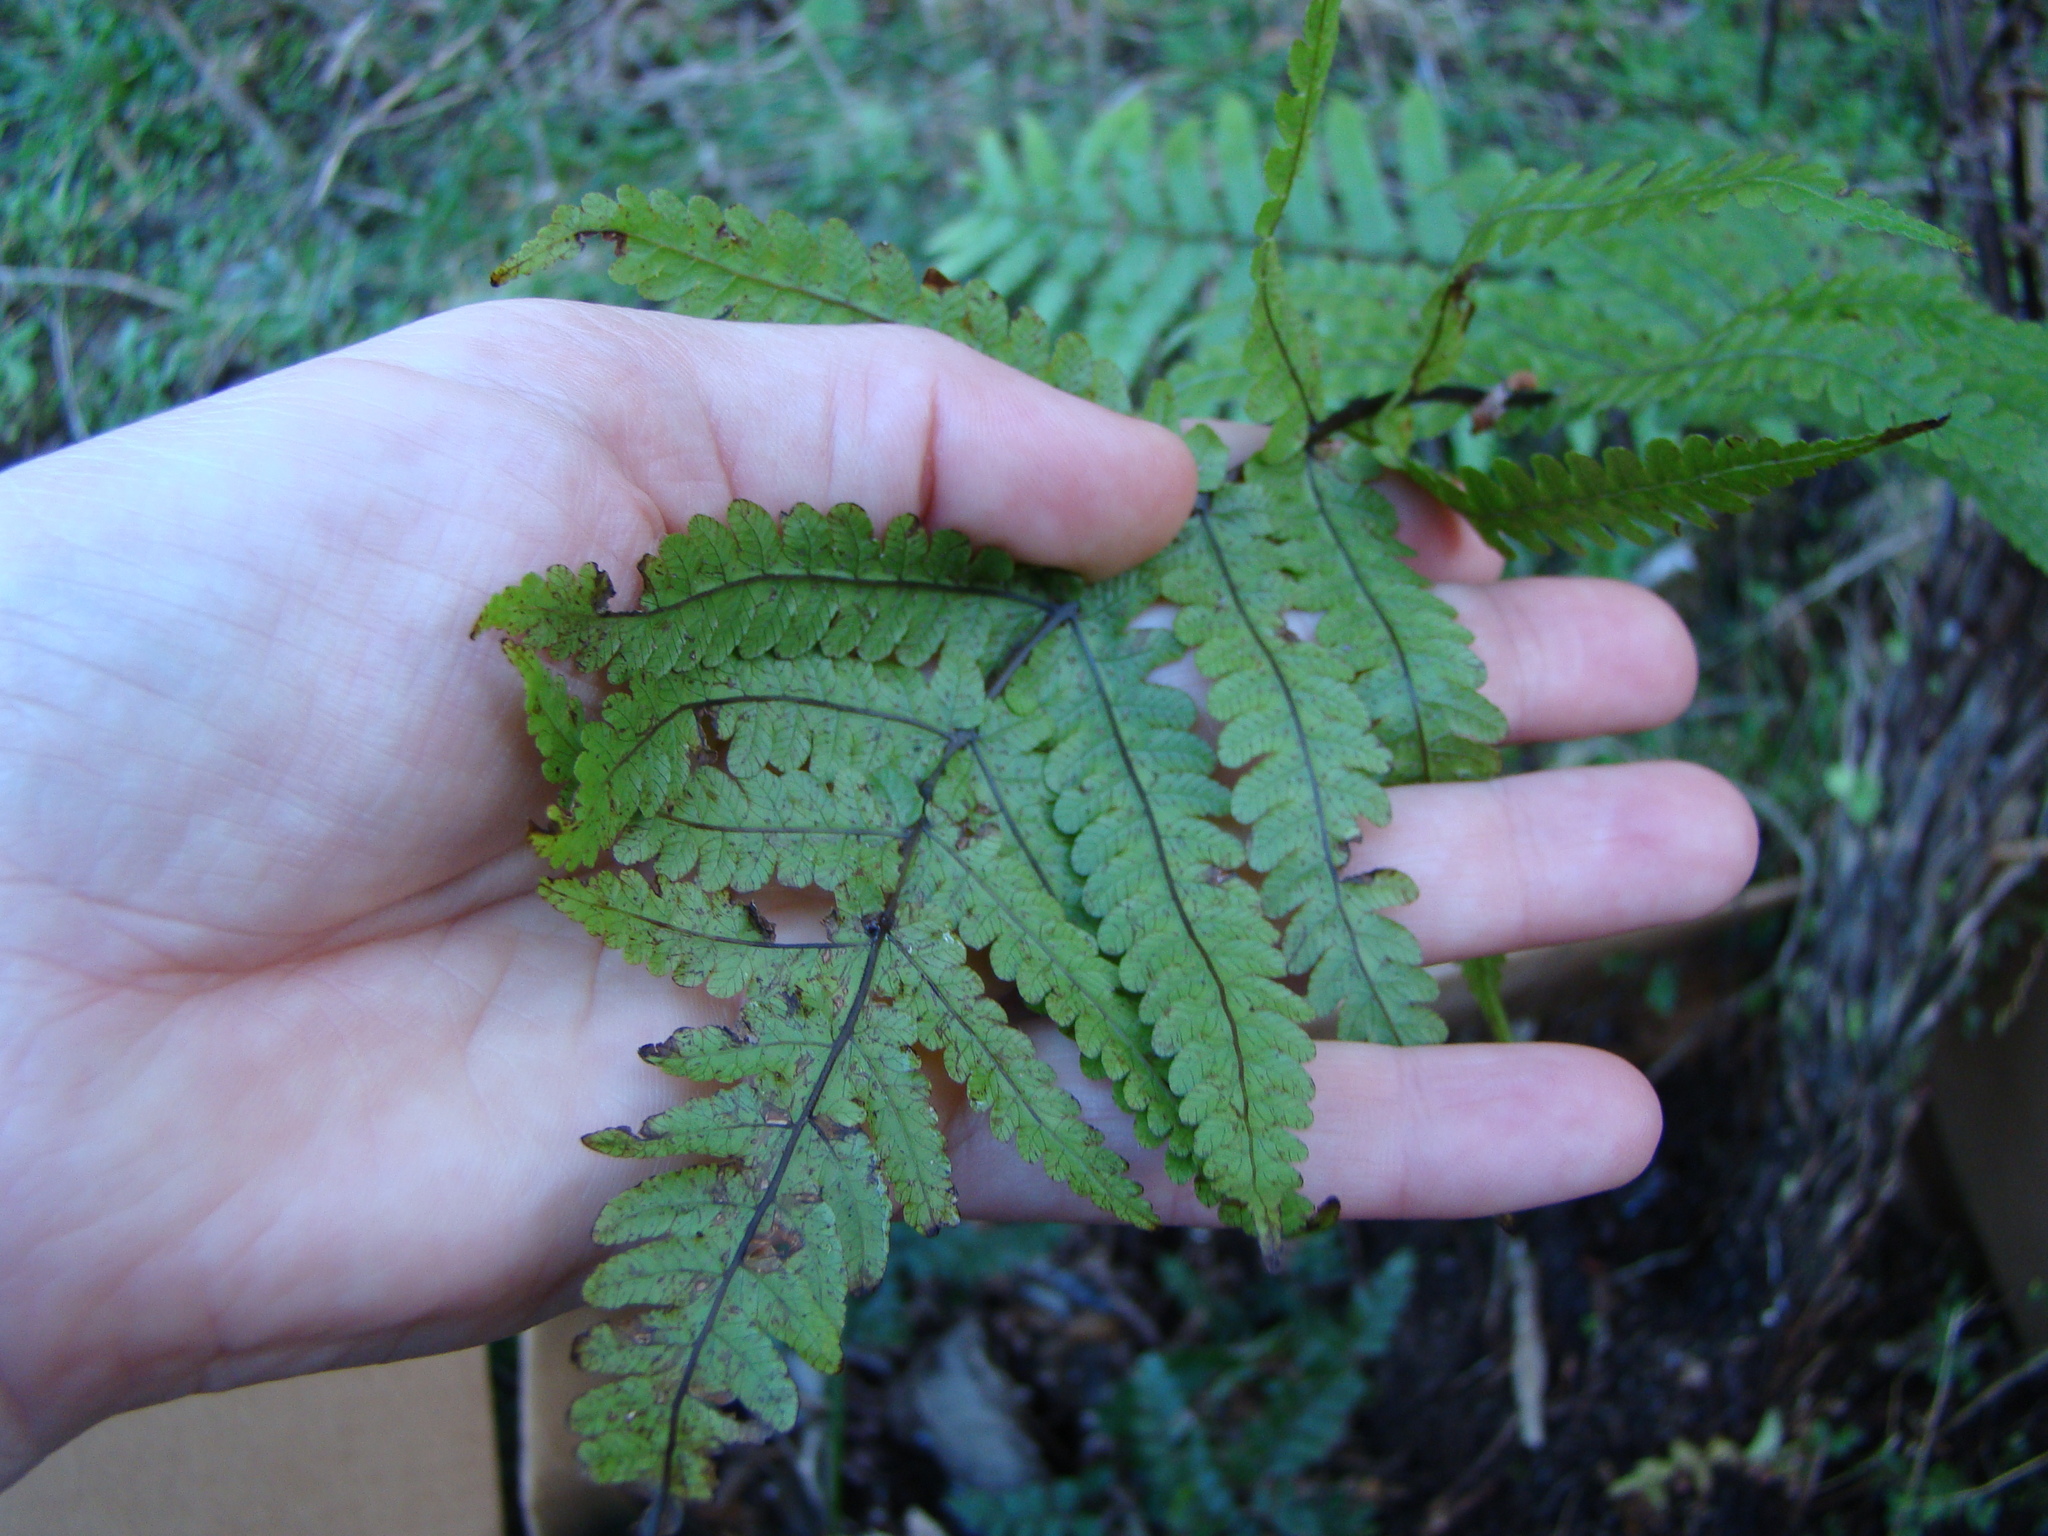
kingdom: Plantae
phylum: Tracheophyta
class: Polypodiopsida
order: Polypodiales
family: Thelypteridaceae
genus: Pakau
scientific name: Pakau pennigera
